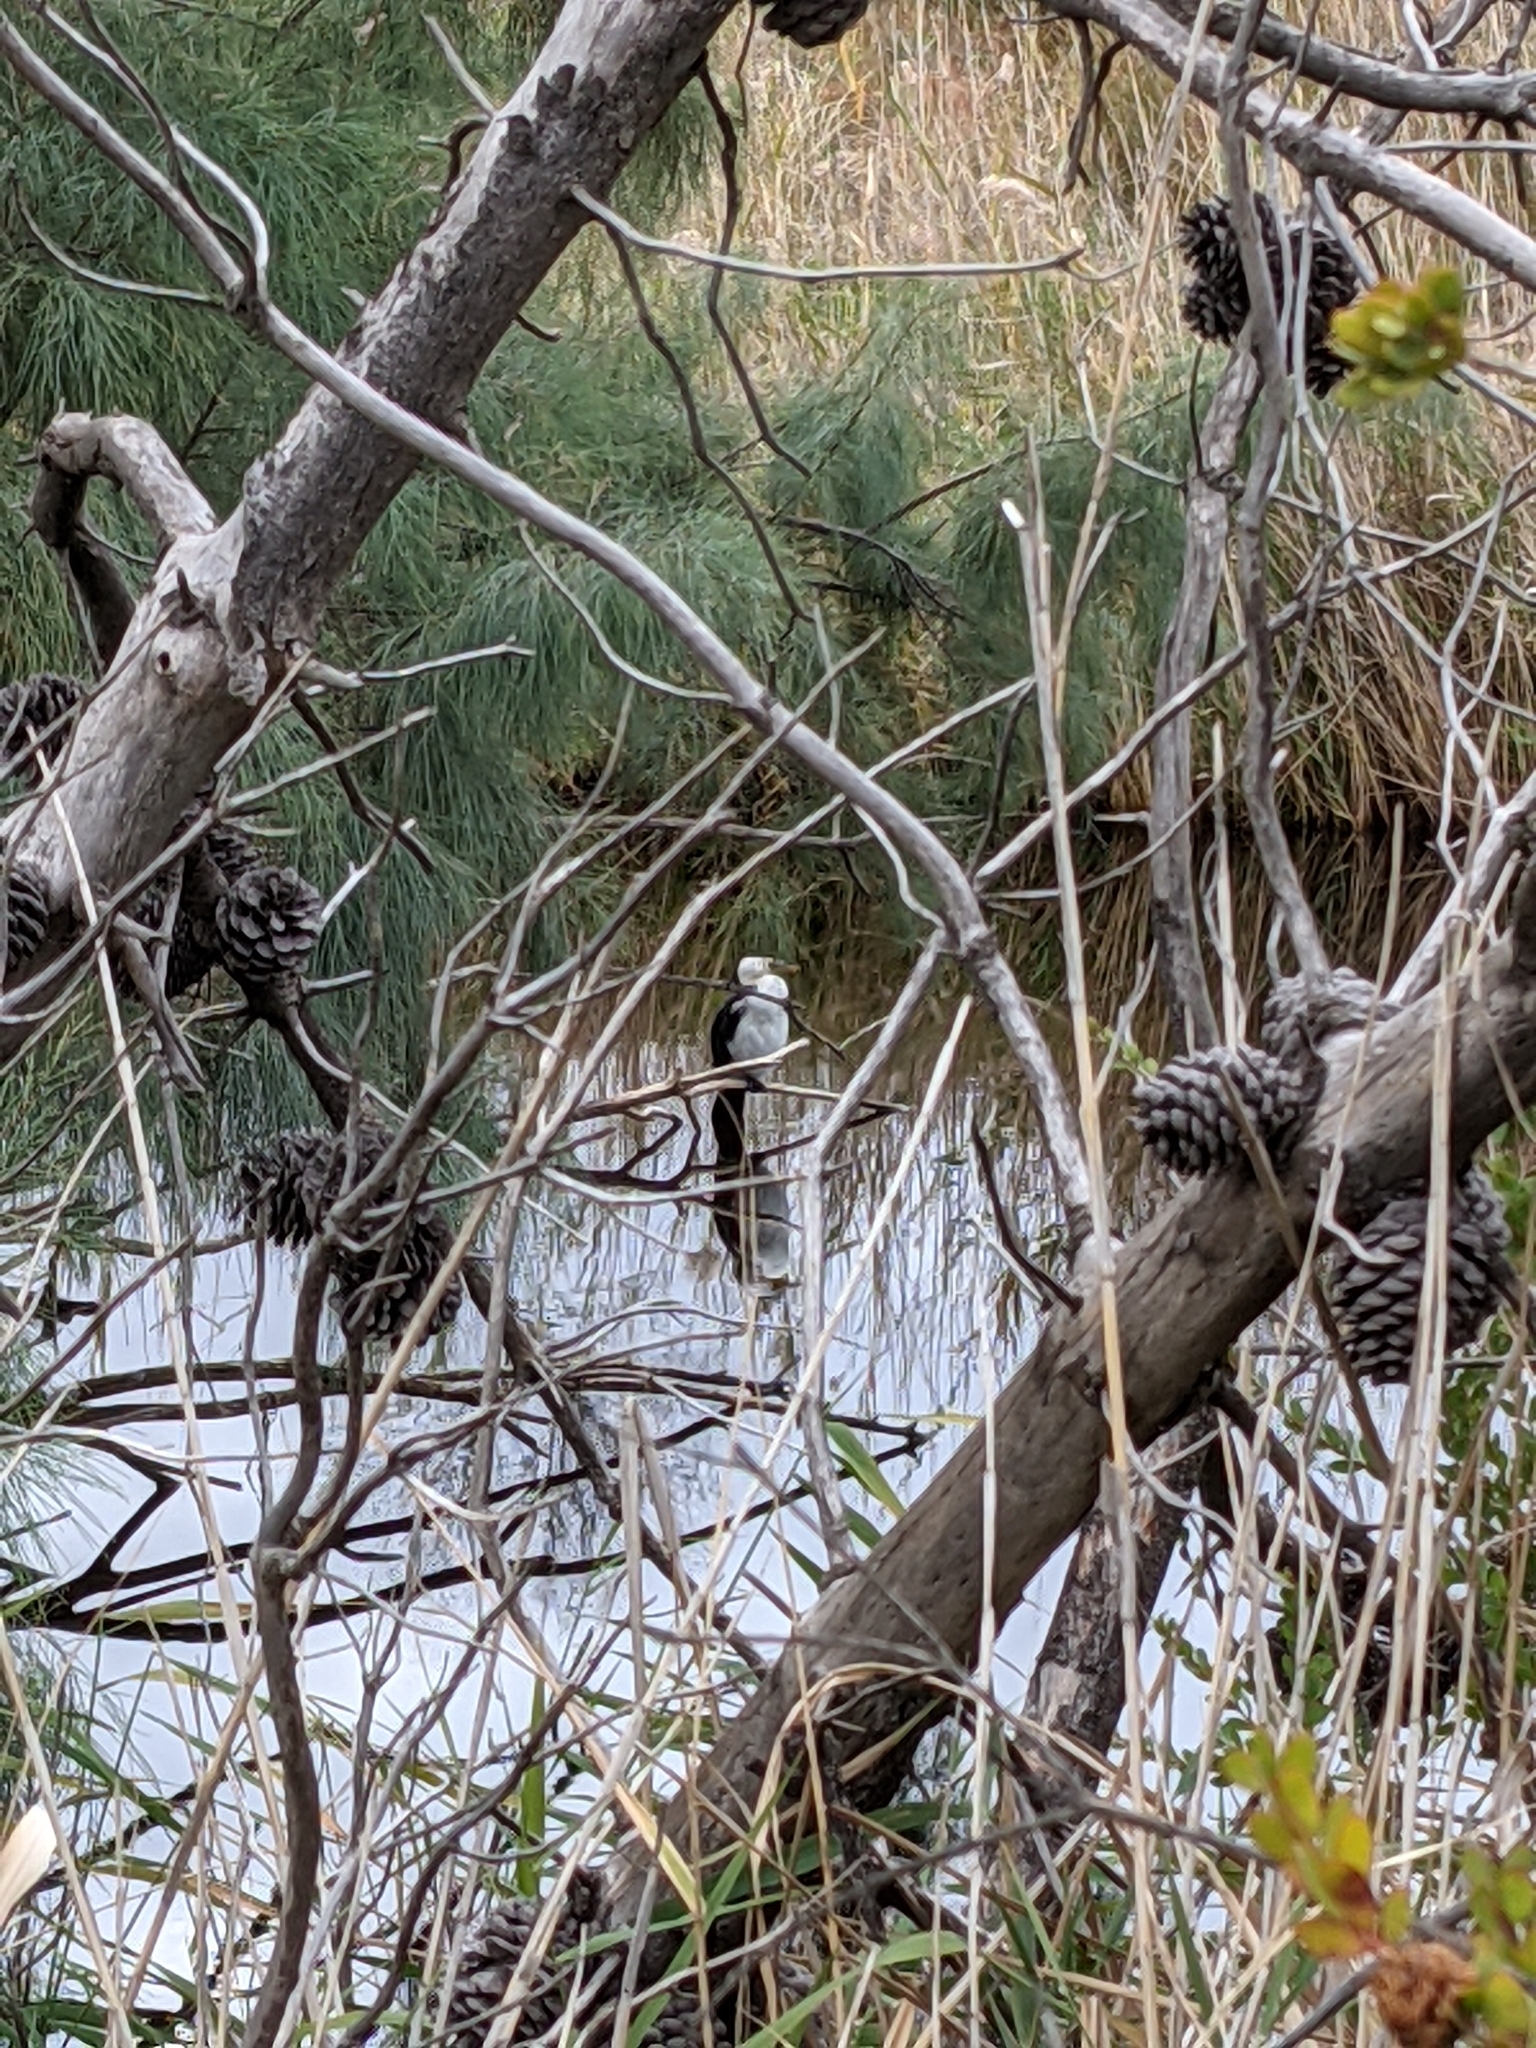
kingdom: Animalia
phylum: Chordata
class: Aves
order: Suliformes
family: Phalacrocoracidae
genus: Microcarbo
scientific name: Microcarbo melanoleucos
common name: Little pied cormorant
